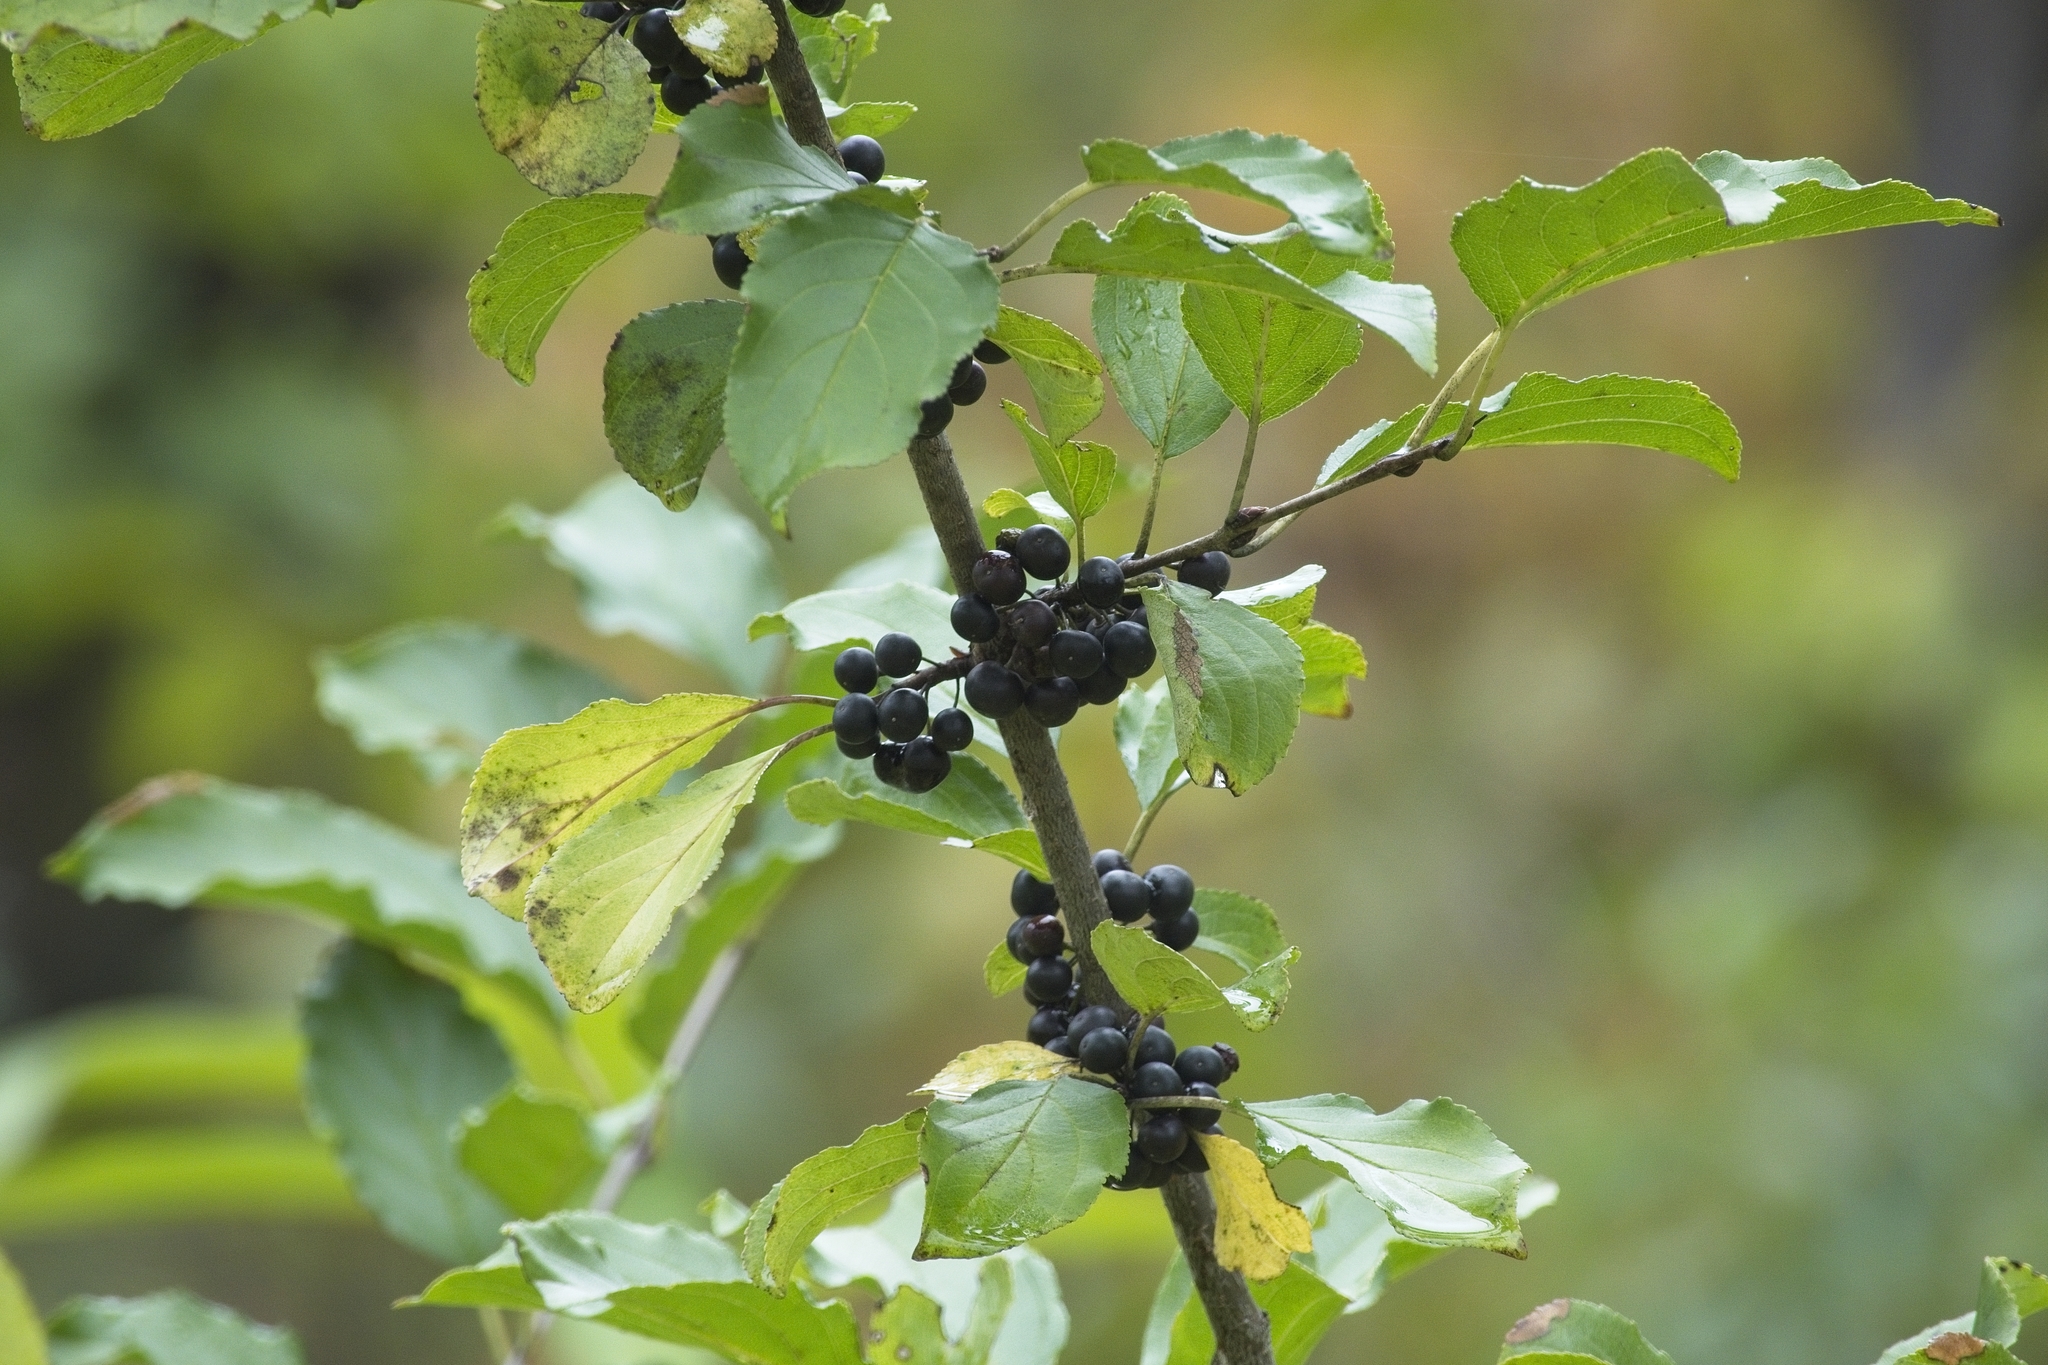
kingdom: Plantae
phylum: Tracheophyta
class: Magnoliopsida
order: Rosales
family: Rhamnaceae
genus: Rhamnus
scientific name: Rhamnus cathartica
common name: Common buckthorn
